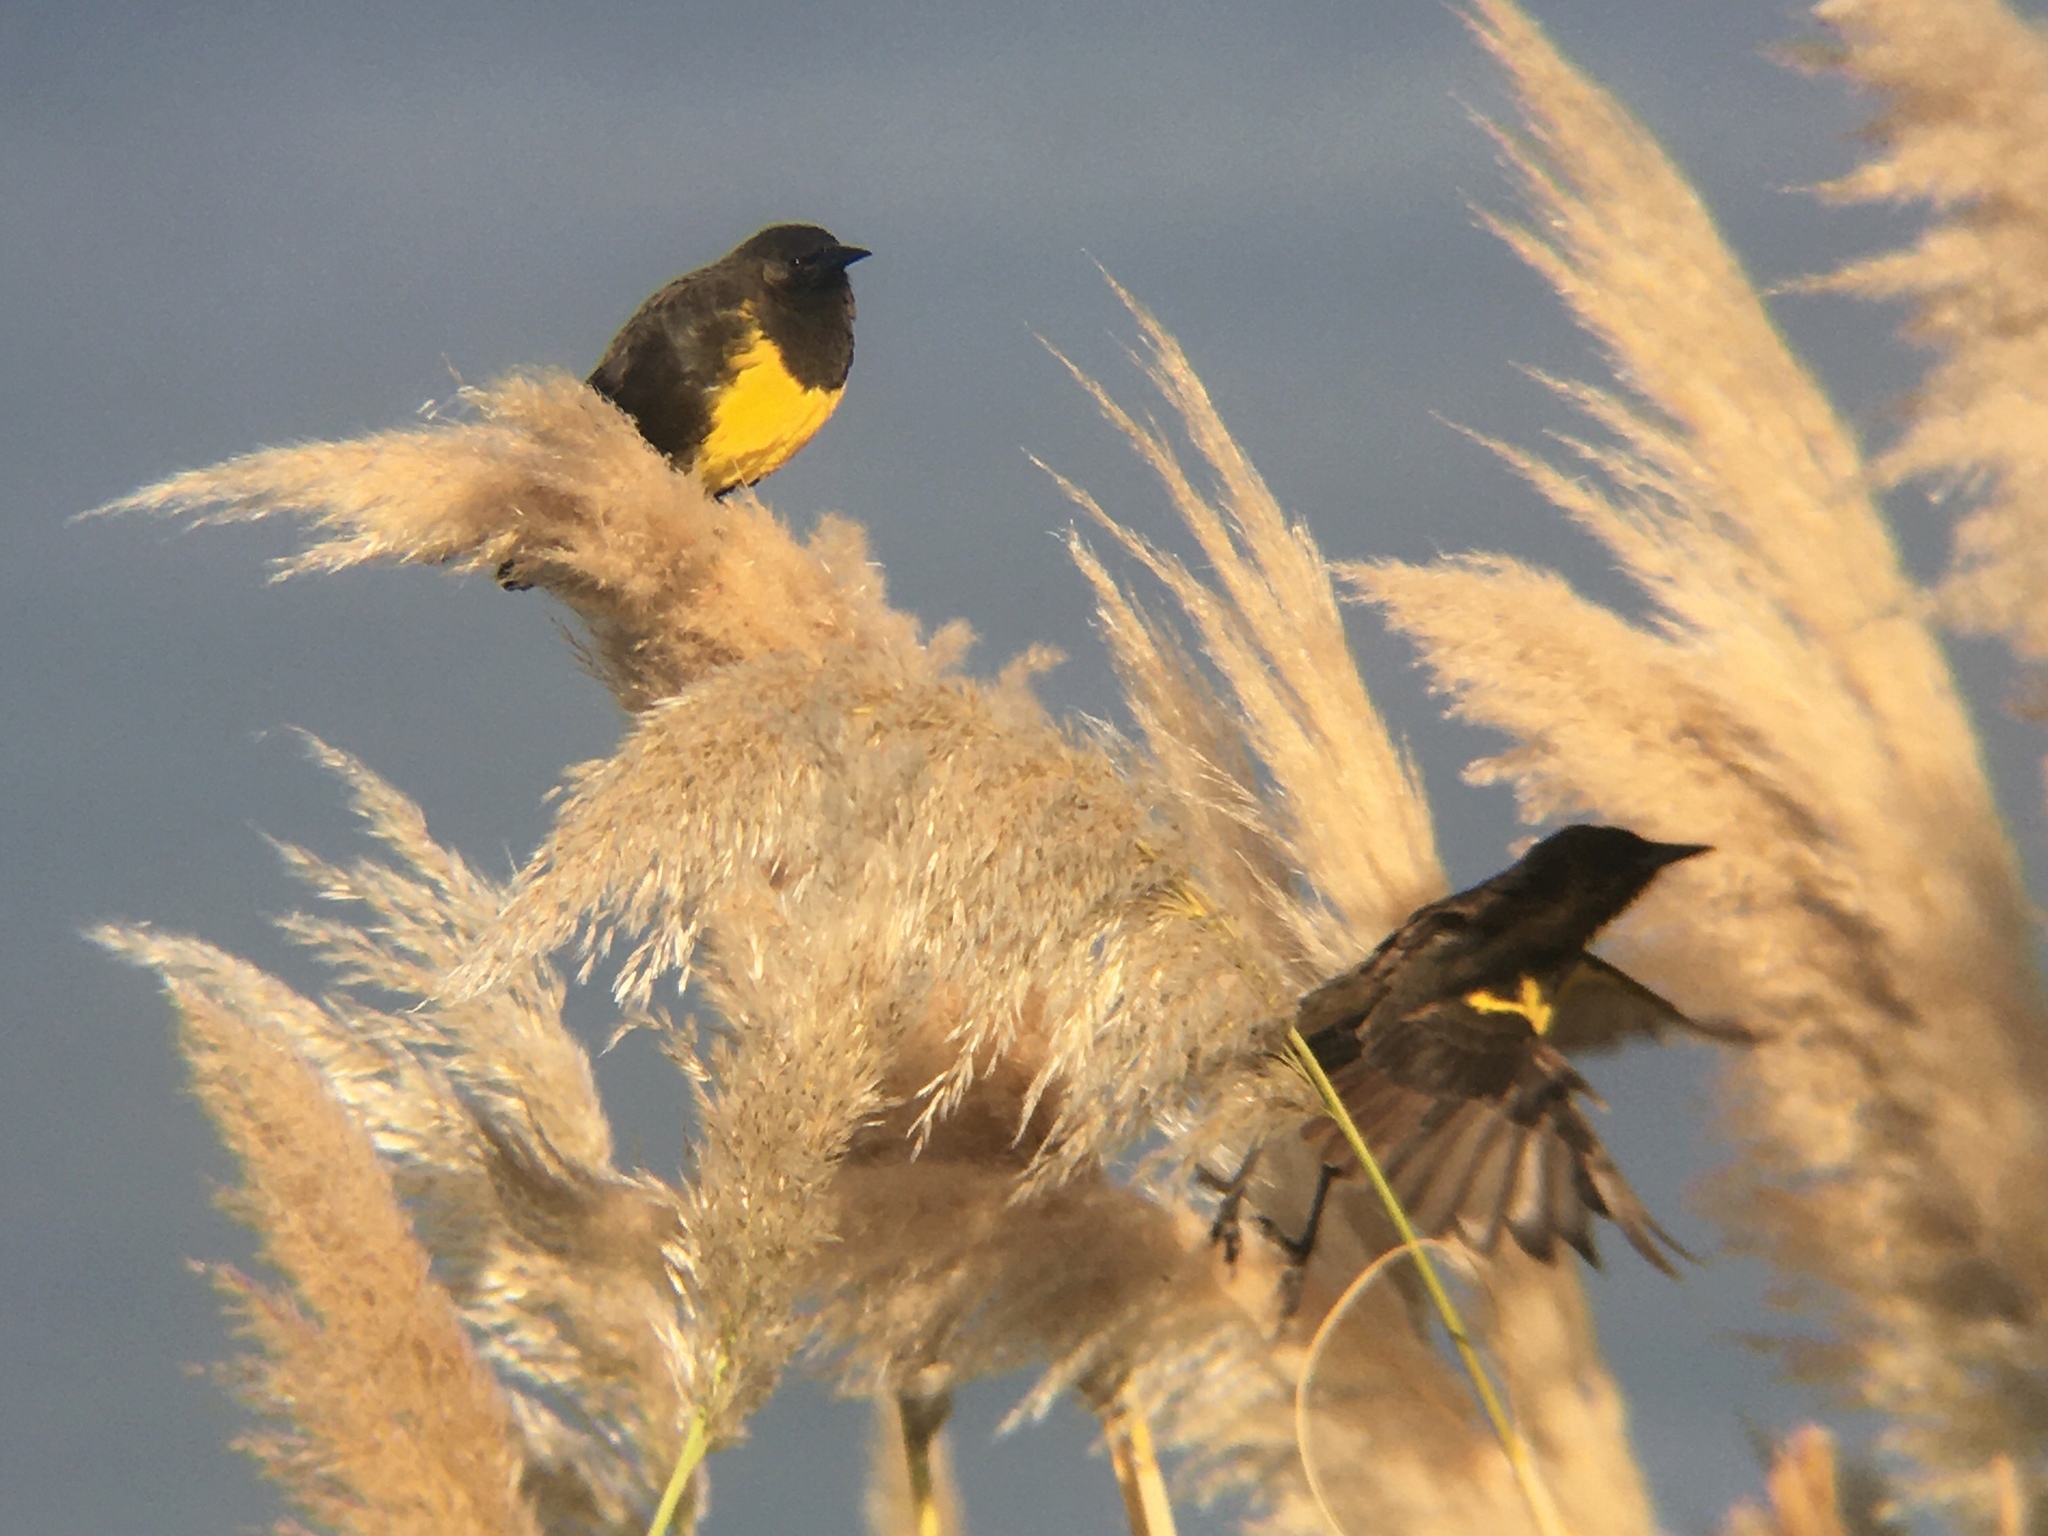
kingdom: Animalia
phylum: Chordata
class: Aves
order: Passeriformes
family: Icteridae
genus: Pseudoleistes
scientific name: Pseudoleistes virescens
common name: Brown-and-yellow marshbird
